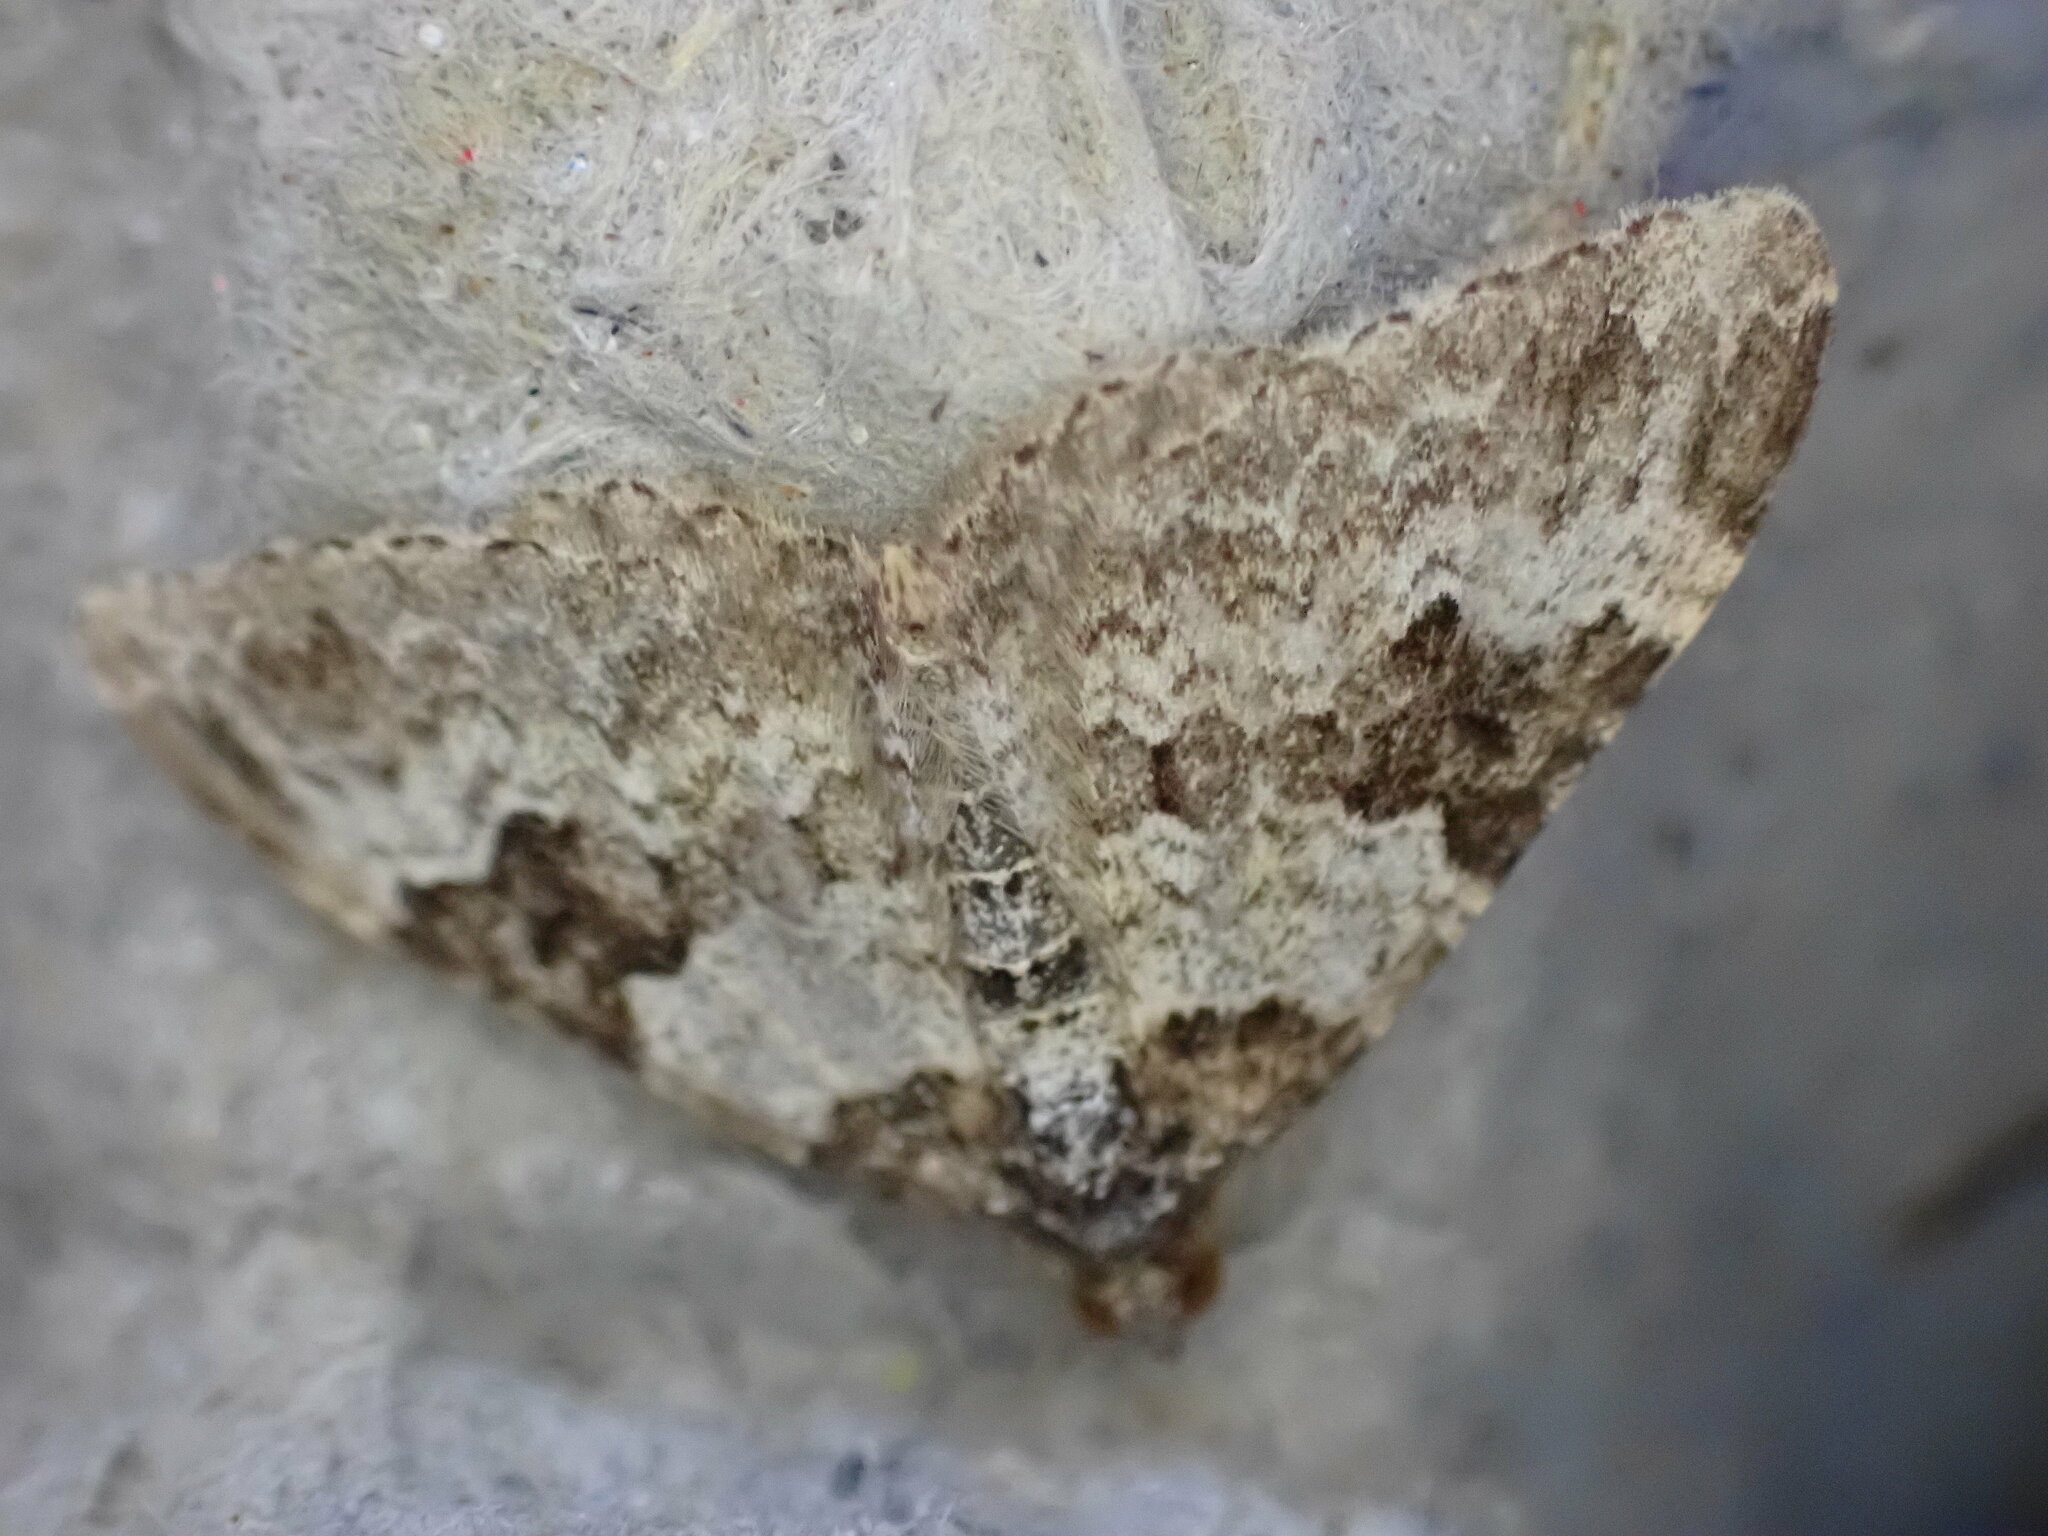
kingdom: Animalia
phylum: Arthropoda
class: Insecta
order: Lepidoptera
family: Geometridae
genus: Xanthorhoe
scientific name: Xanthorhoe fluctuata
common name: Garden carpet
